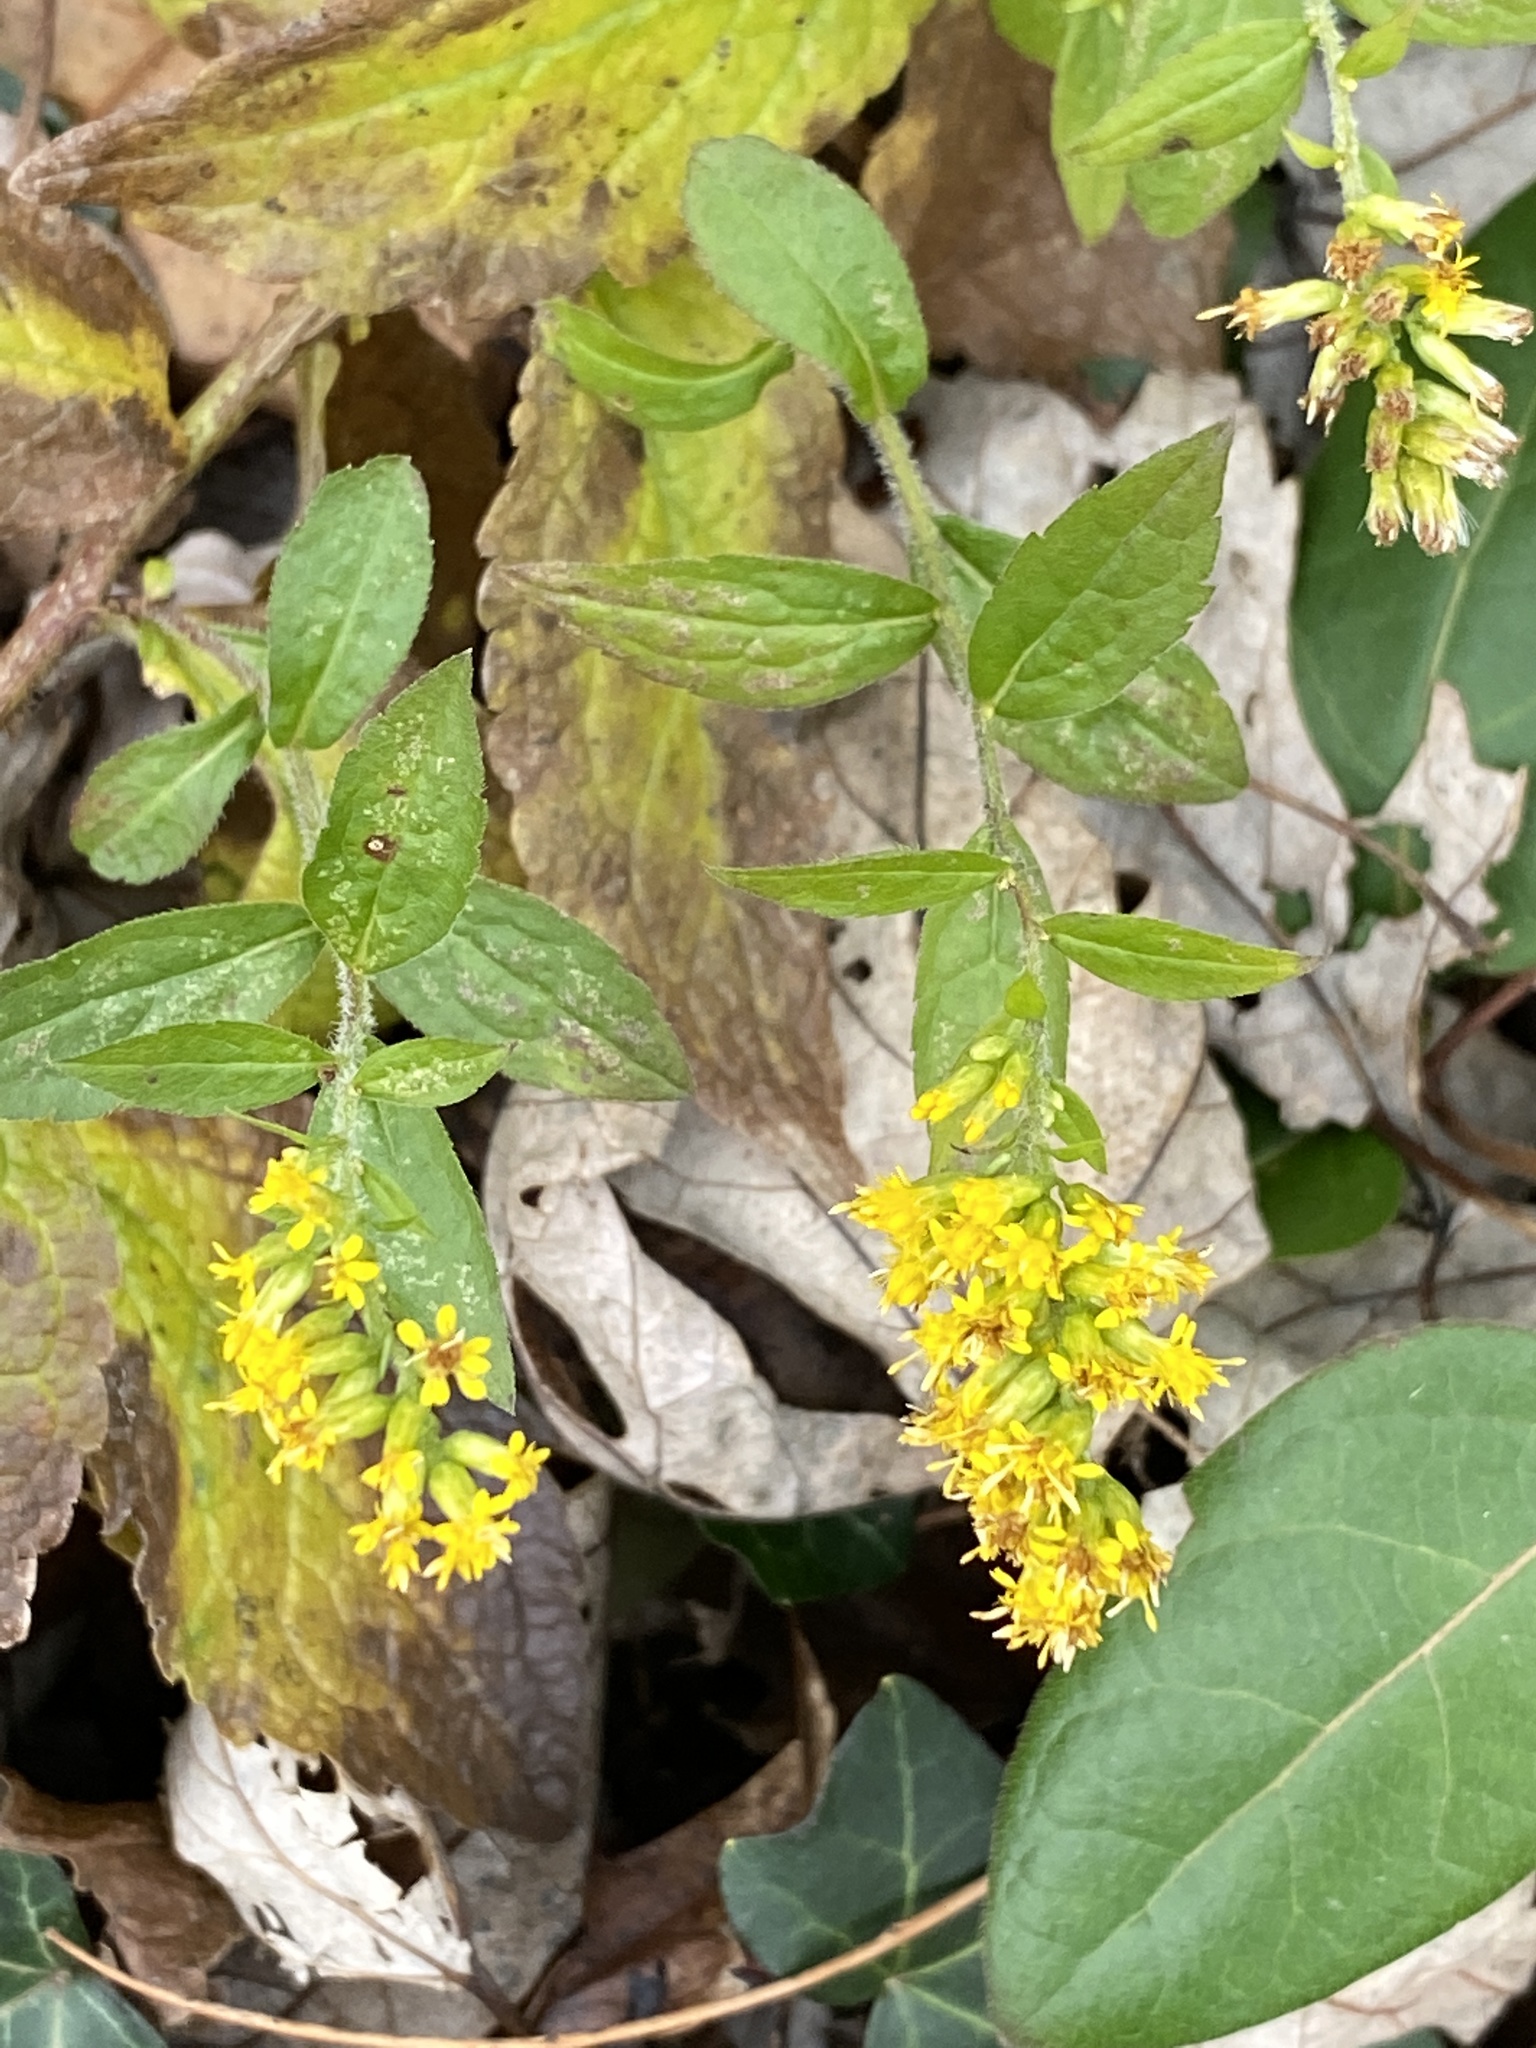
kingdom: Plantae
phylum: Tracheophyta
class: Magnoliopsida
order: Asterales
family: Asteraceae
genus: Solidago
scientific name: Solidago rugosa
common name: Rough-stemmed goldenrod
